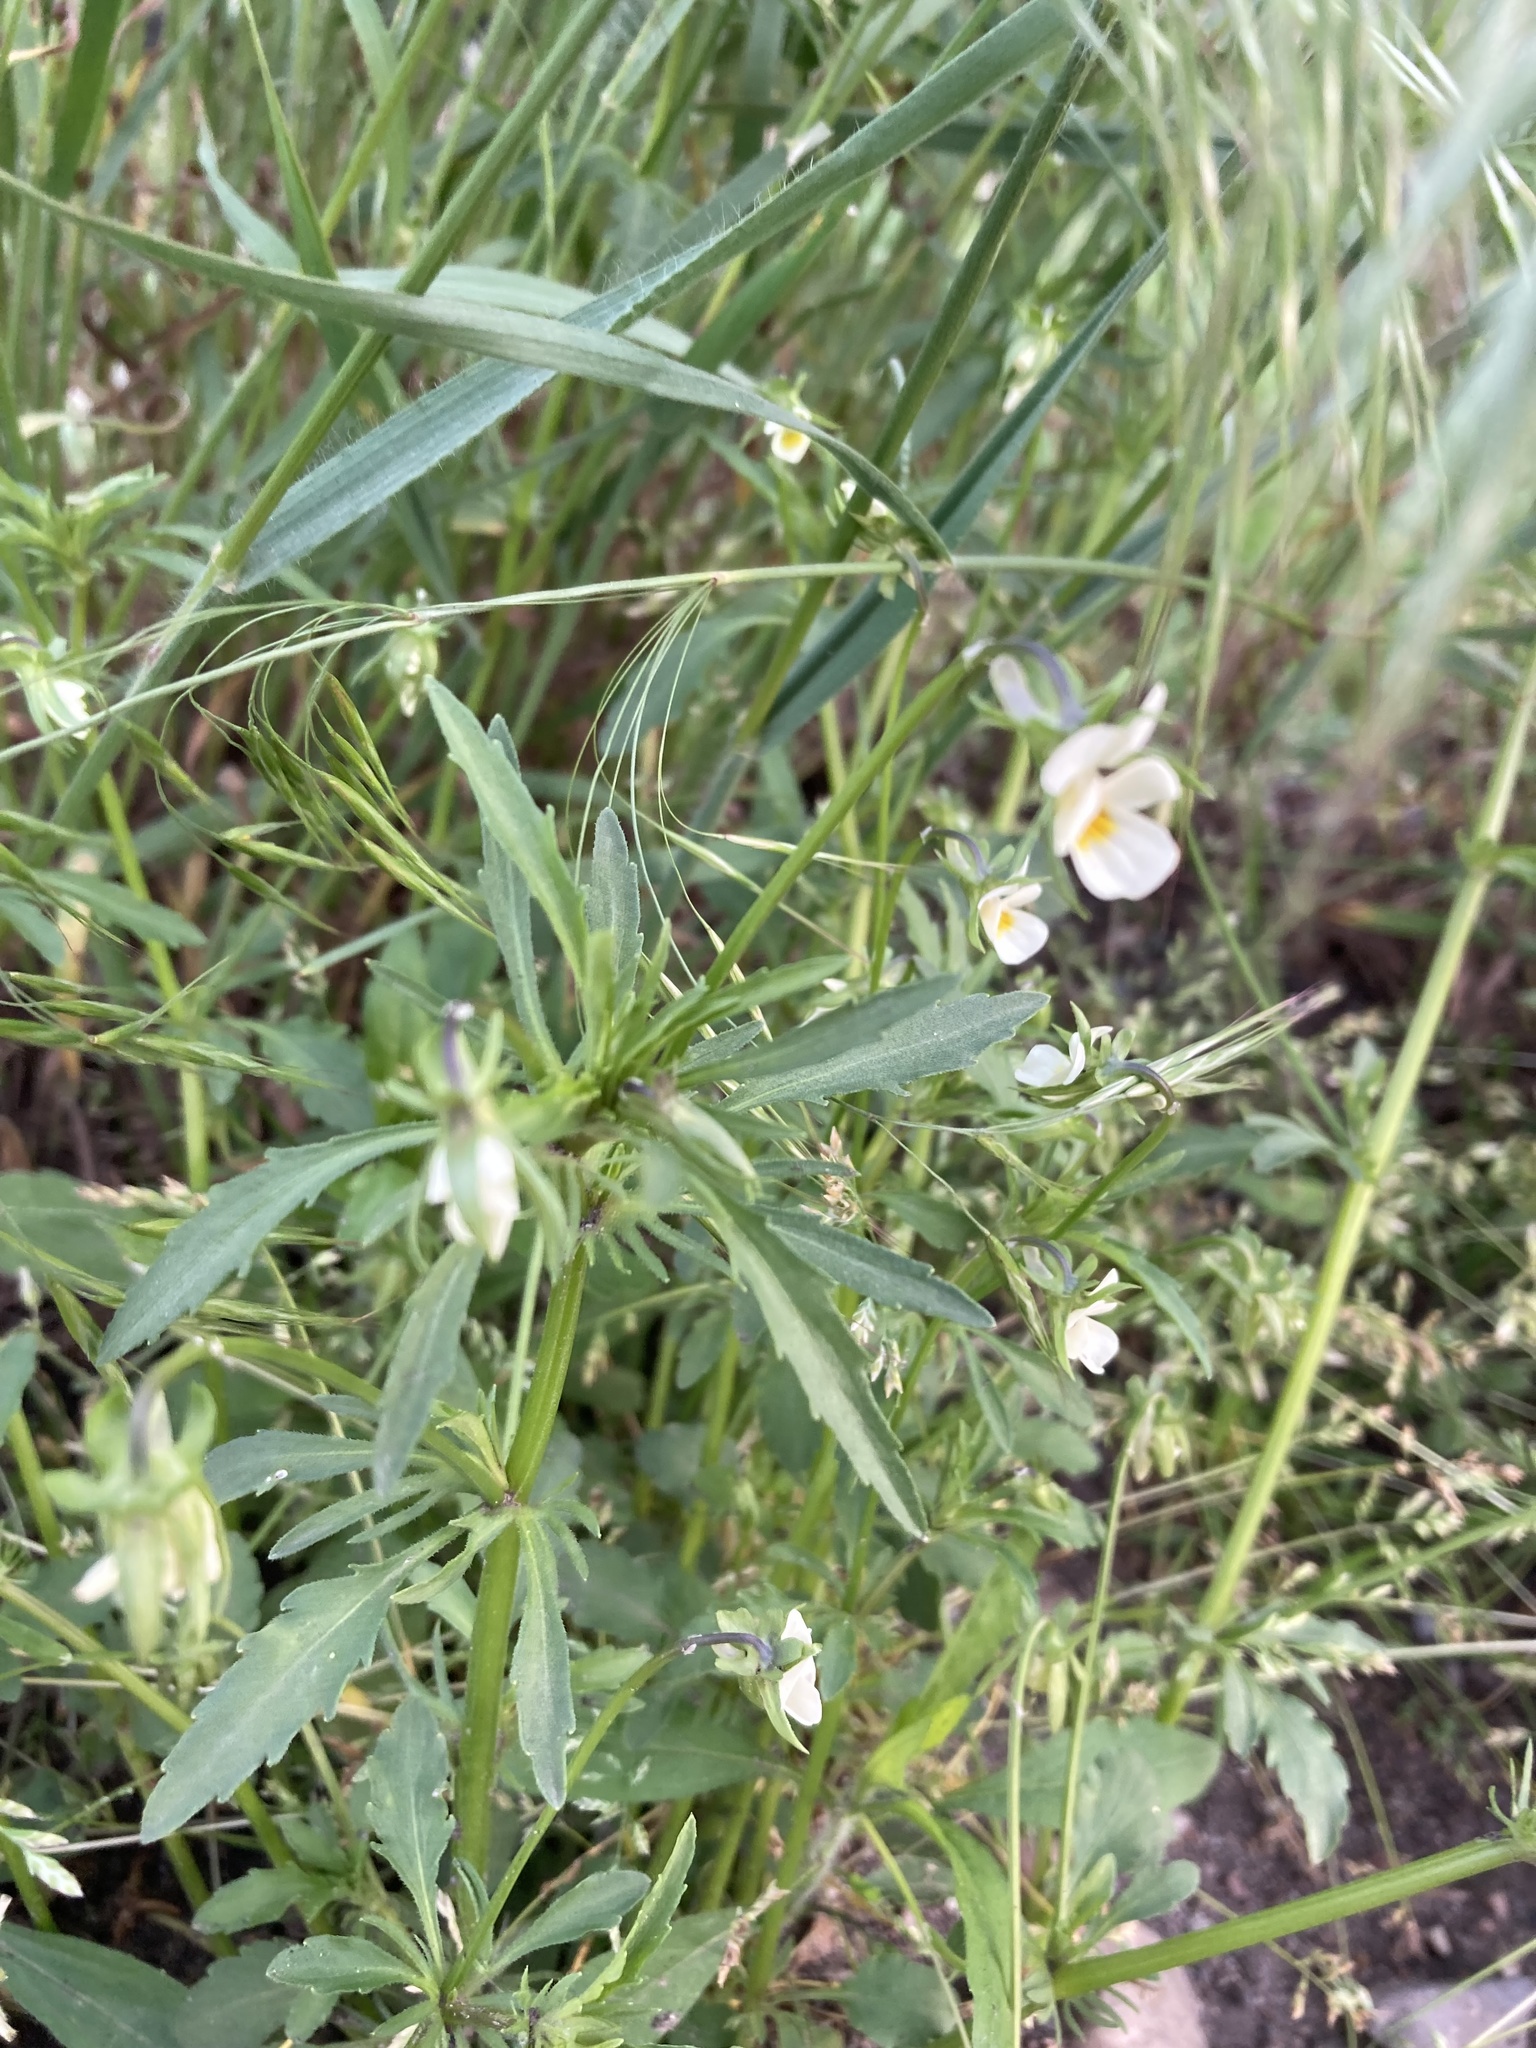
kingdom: Plantae
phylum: Tracheophyta
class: Magnoliopsida
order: Malpighiales
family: Violaceae
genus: Viola
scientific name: Viola arvensis
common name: Field pansy
